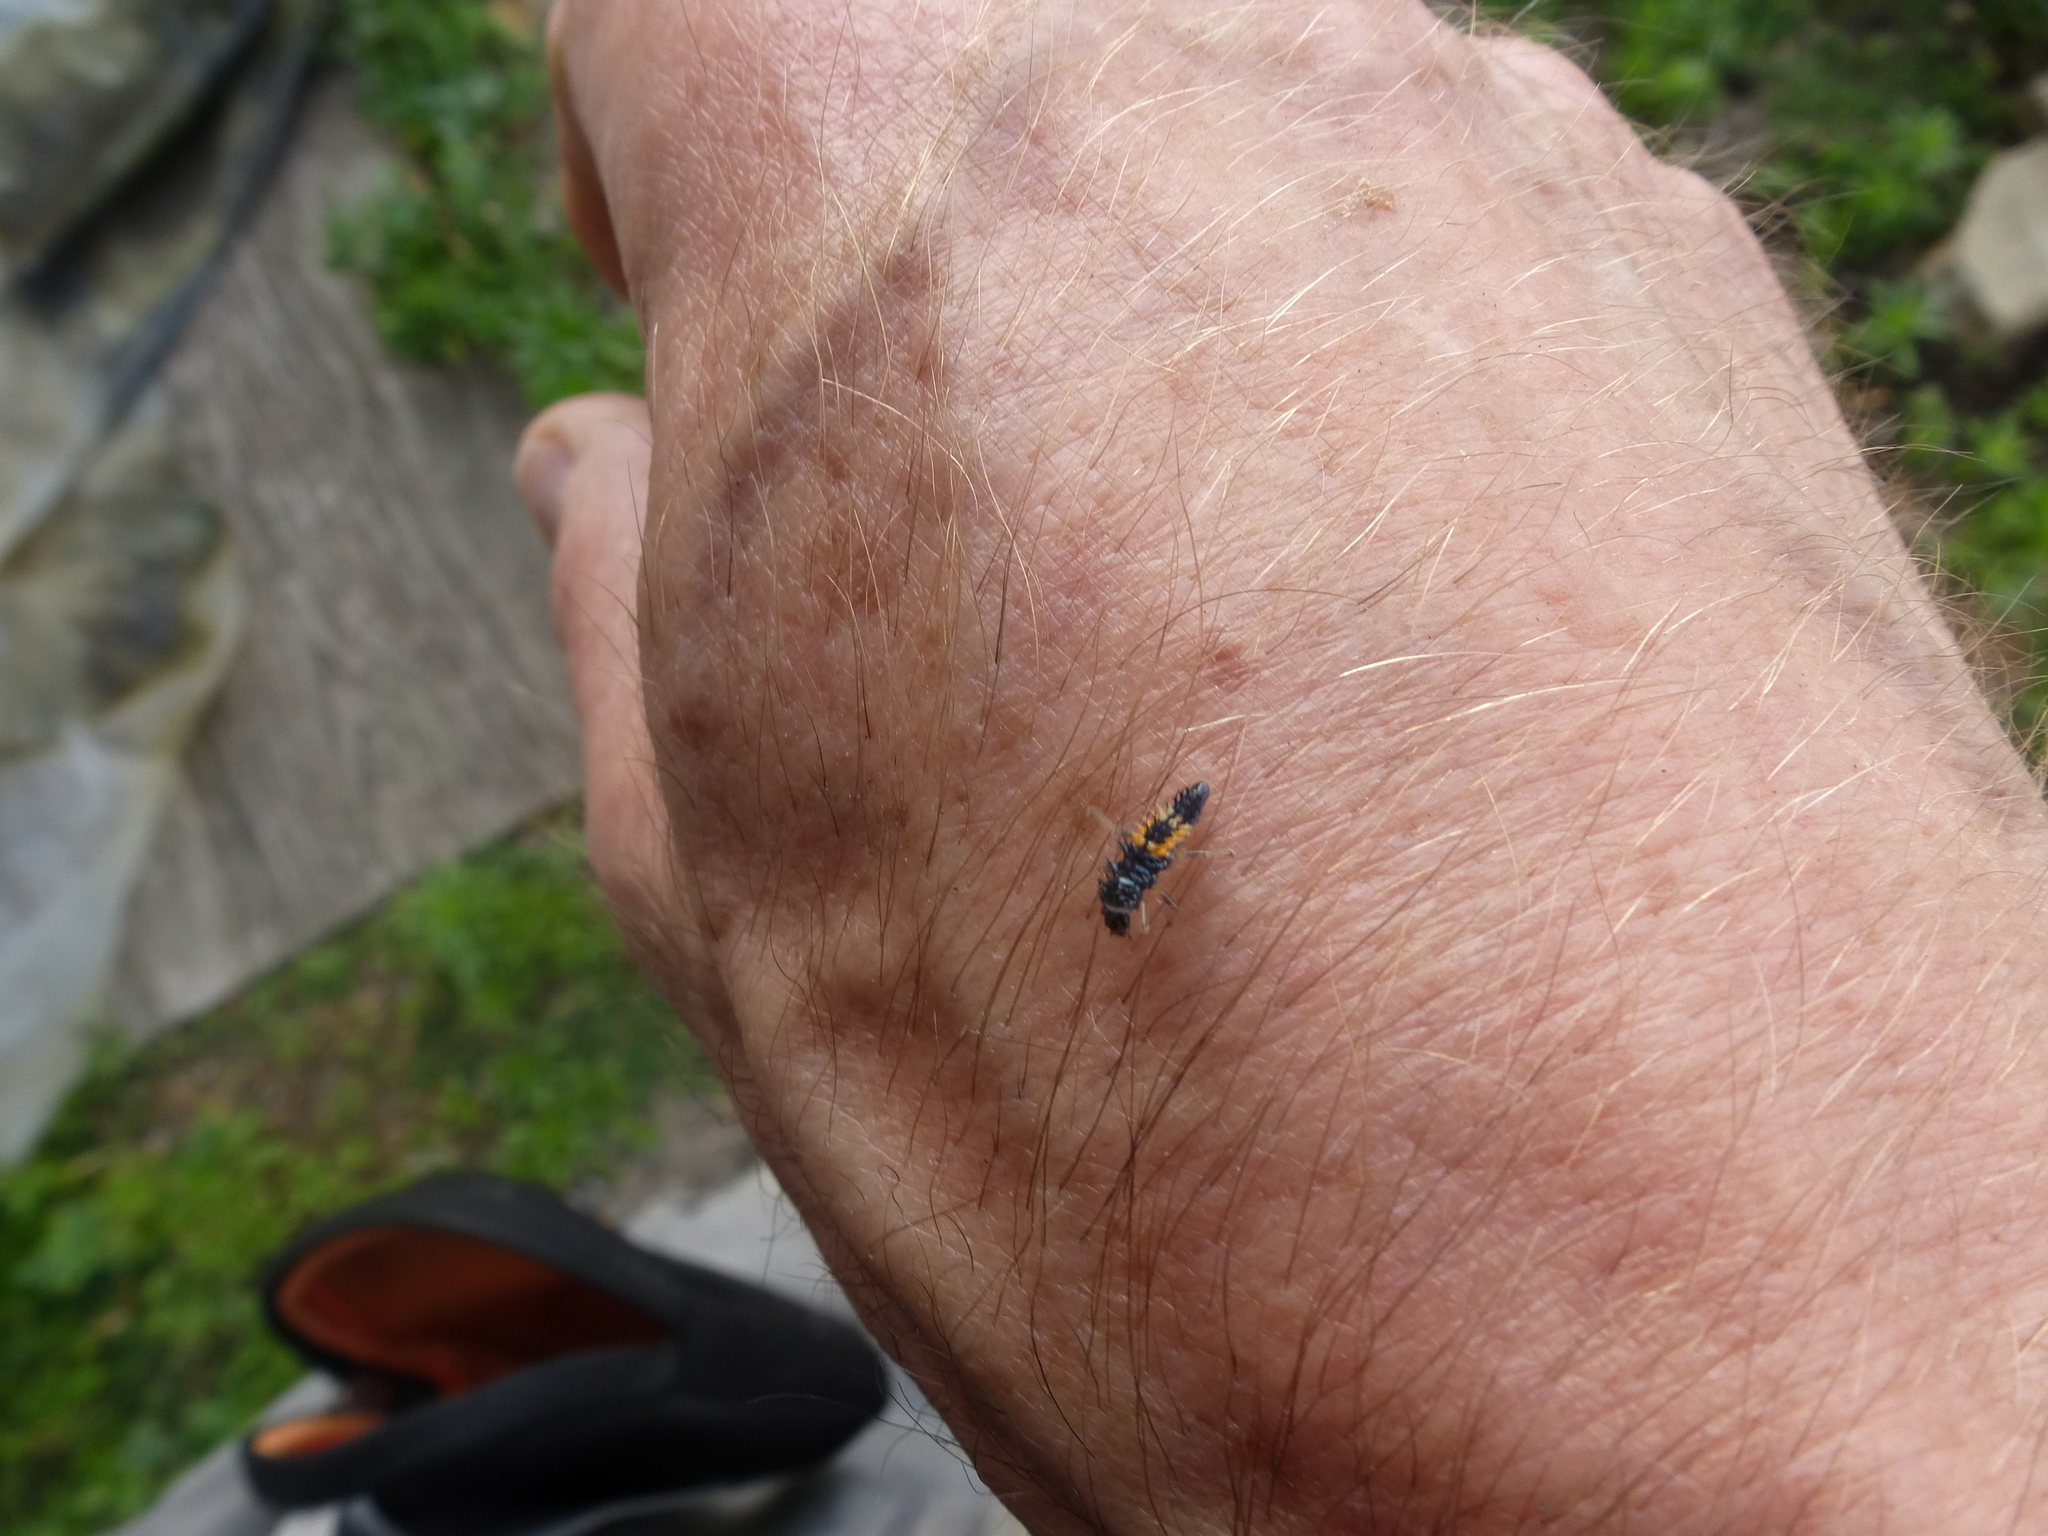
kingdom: Animalia
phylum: Arthropoda
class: Insecta
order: Coleoptera
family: Coccinellidae
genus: Harmonia
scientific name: Harmonia axyridis
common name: Harlequin ladybird
